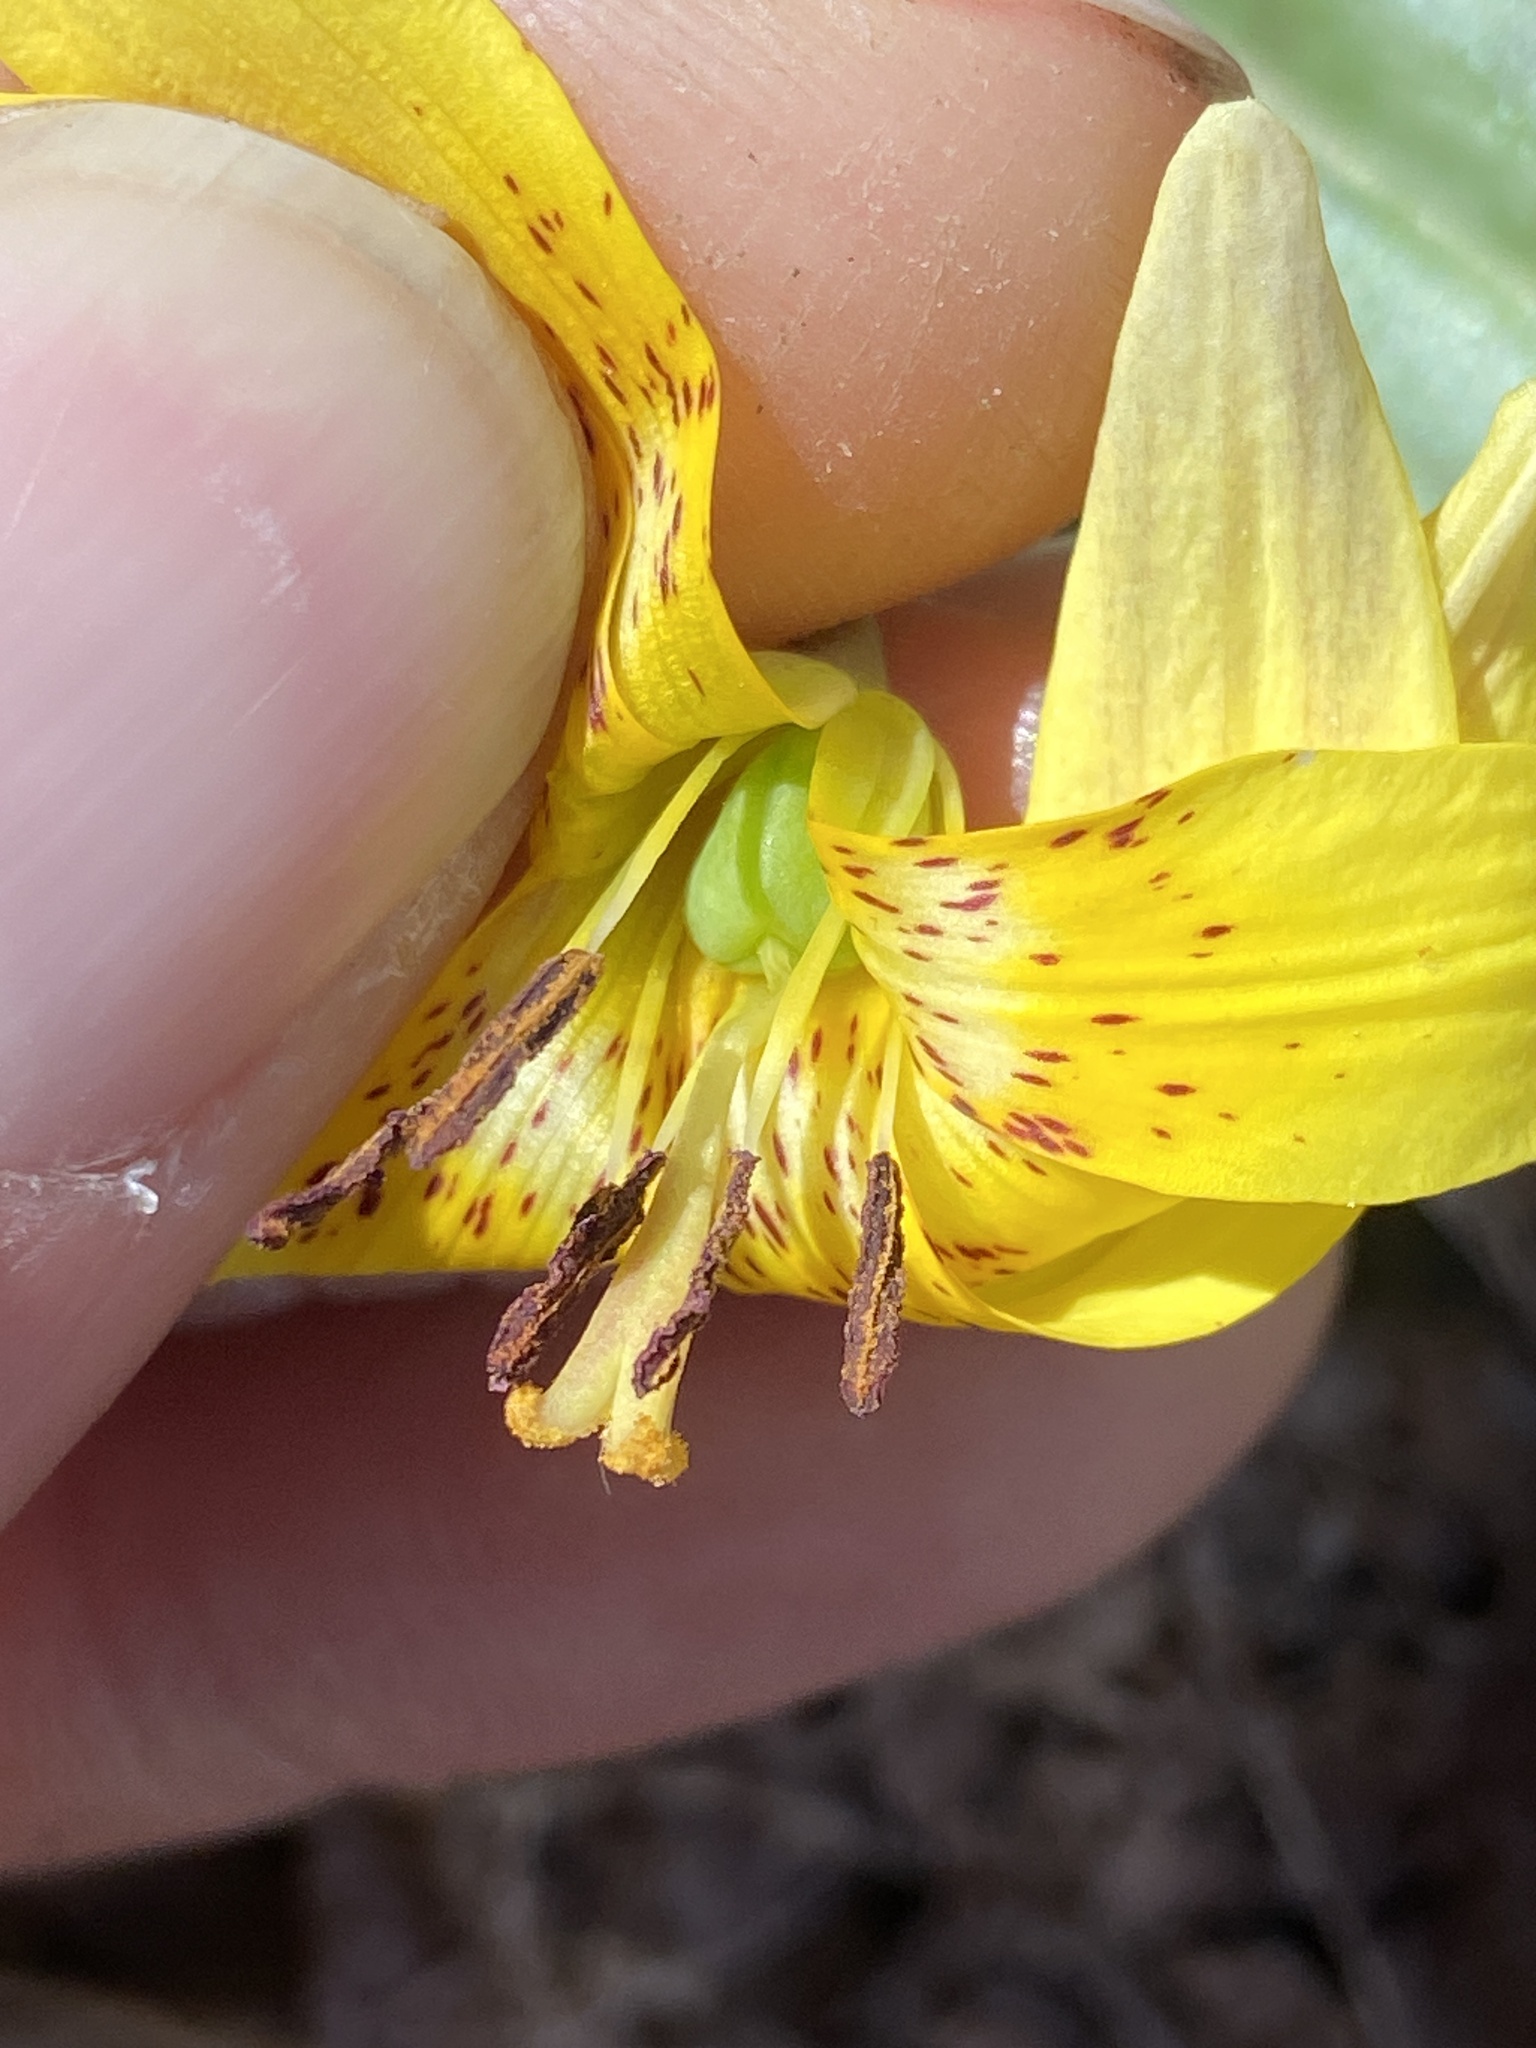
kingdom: Plantae
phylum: Tracheophyta
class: Liliopsida
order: Liliales
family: Liliaceae
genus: Erythronium
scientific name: Erythronium umbilicatum
